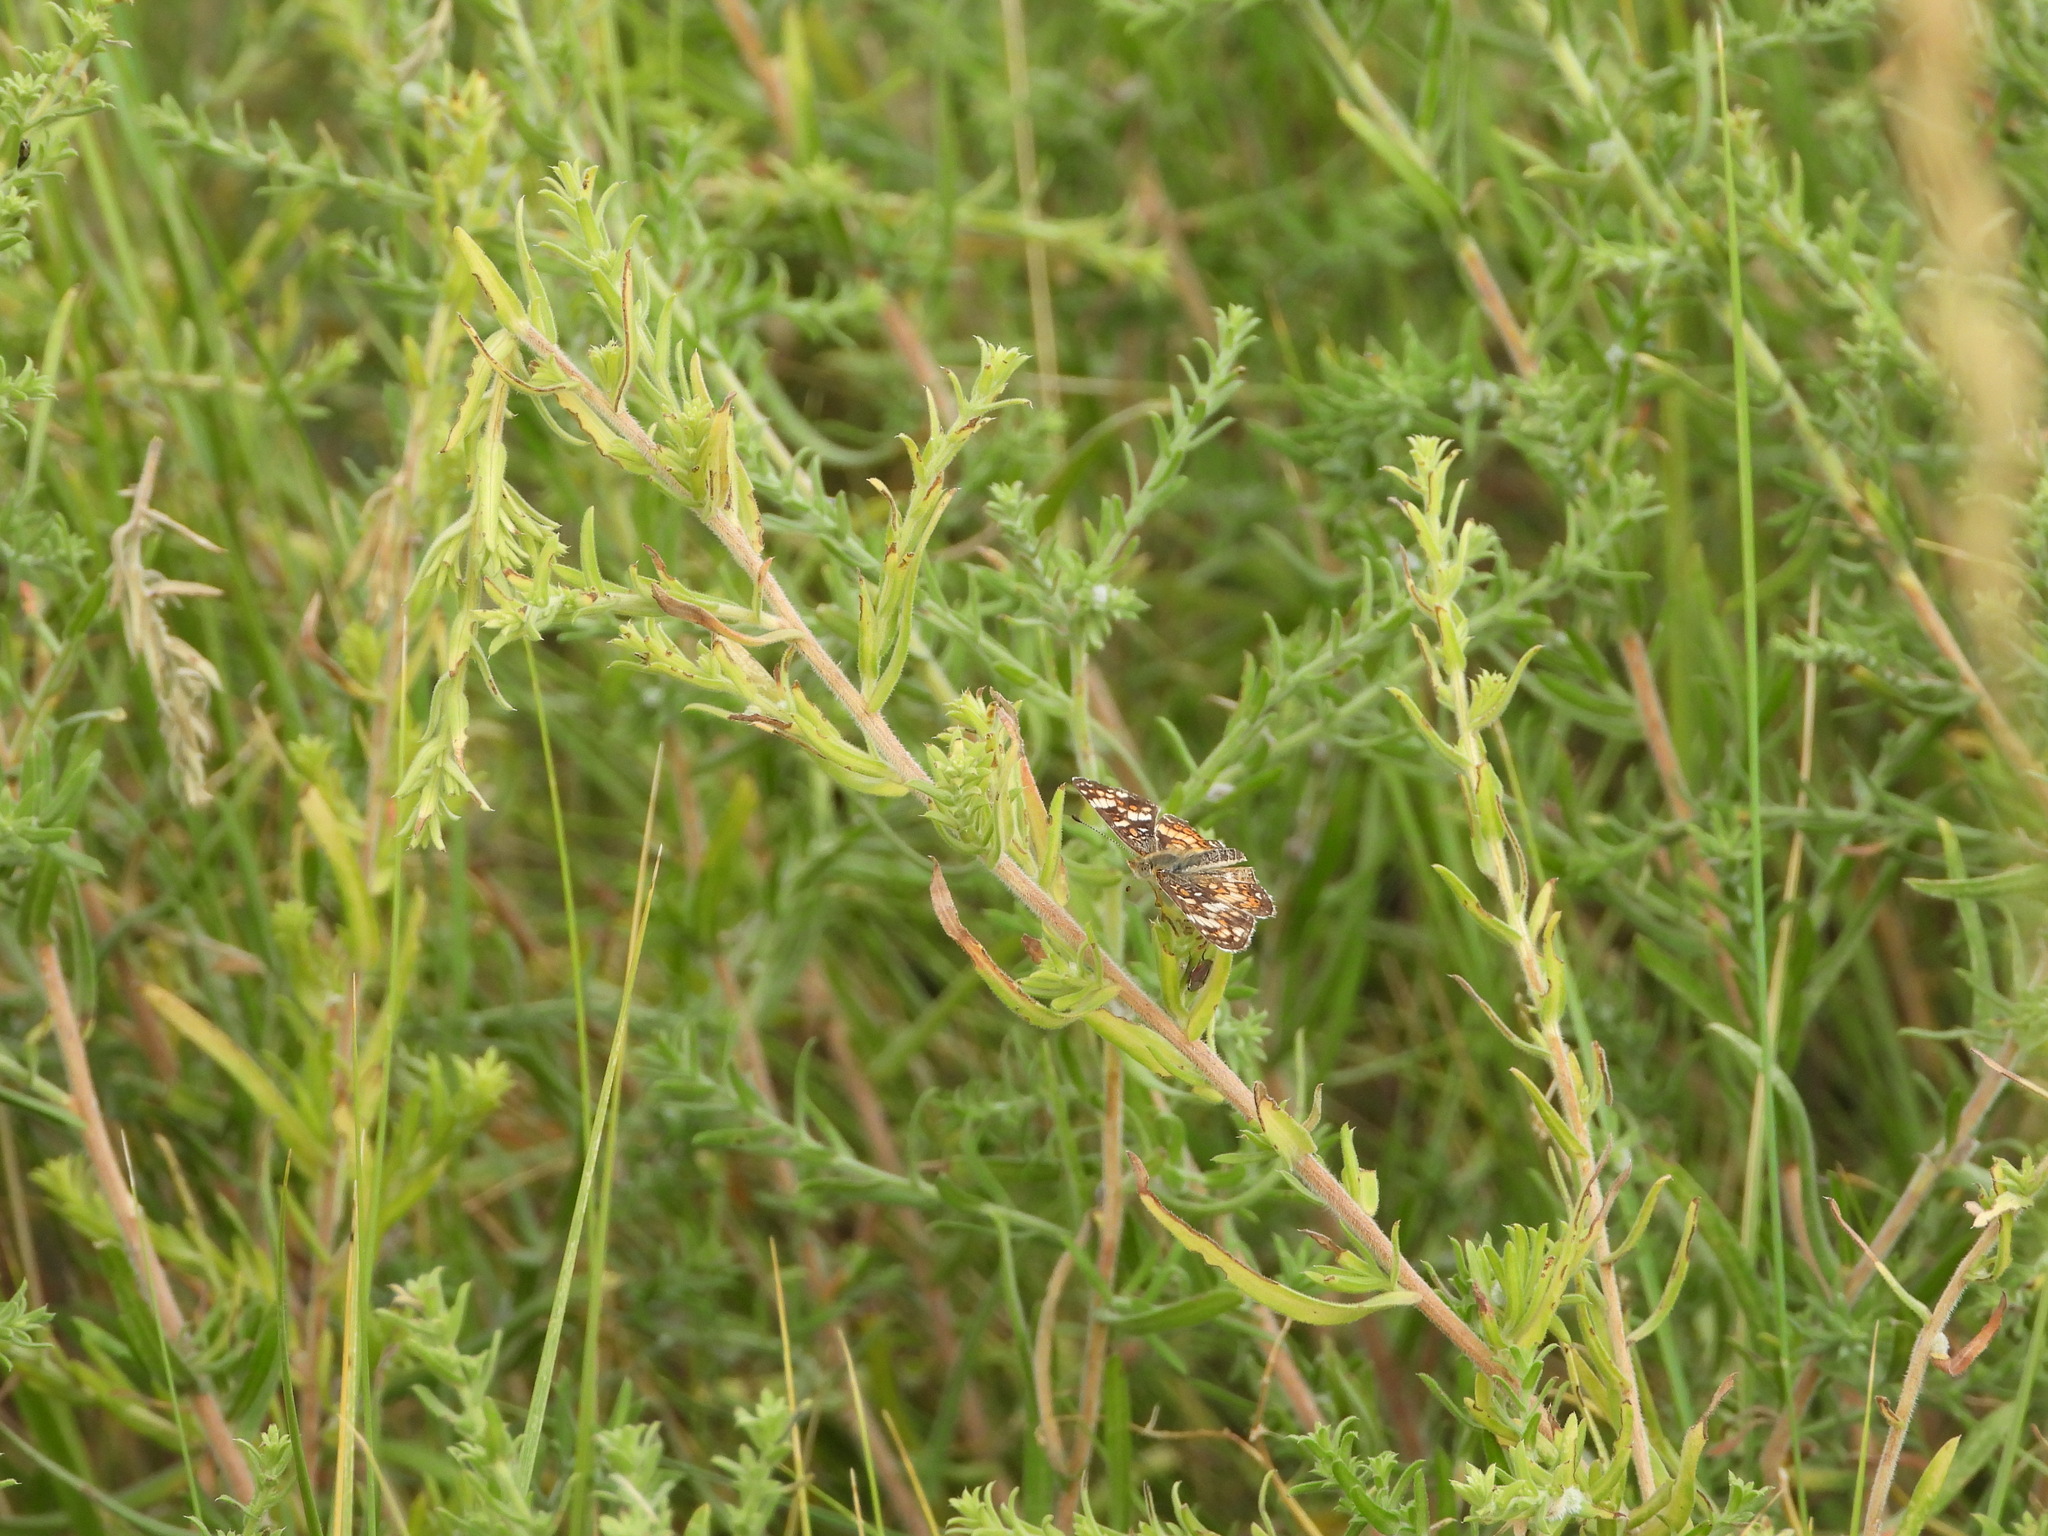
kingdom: Animalia
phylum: Arthropoda
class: Insecta
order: Lepidoptera
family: Nymphalidae
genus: Phyciodes
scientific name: Phyciodes tharos
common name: Pearl crescent
